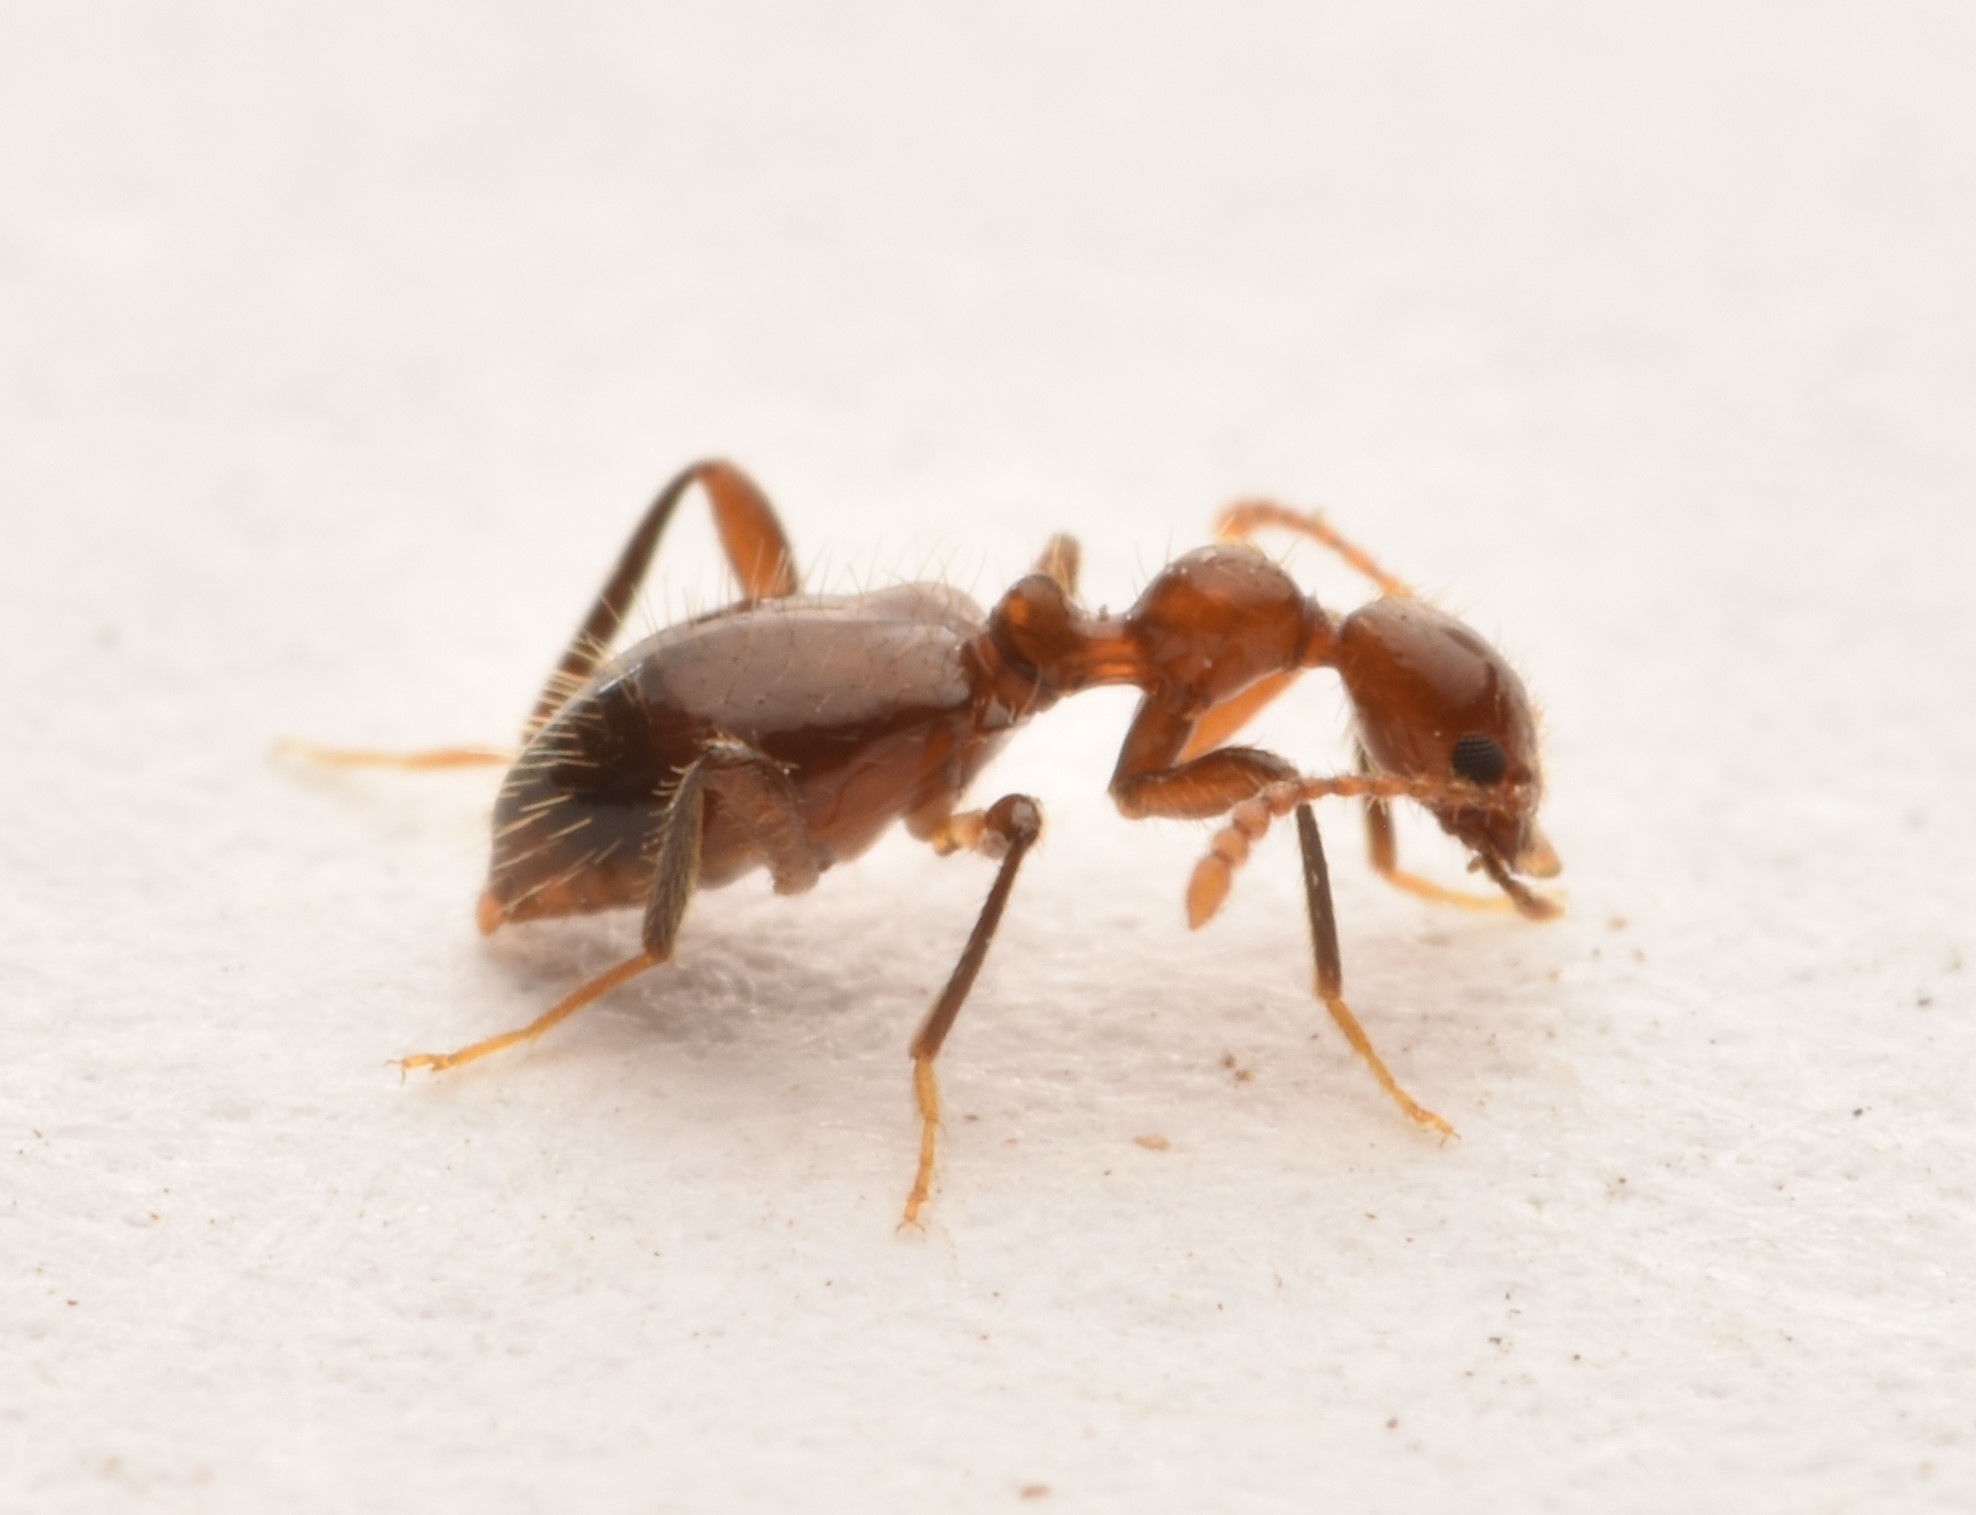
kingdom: Animalia
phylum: Arthropoda
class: Insecta
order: Coleoptera
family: Anthicidae
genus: Acanthinus
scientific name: Acanthinus
